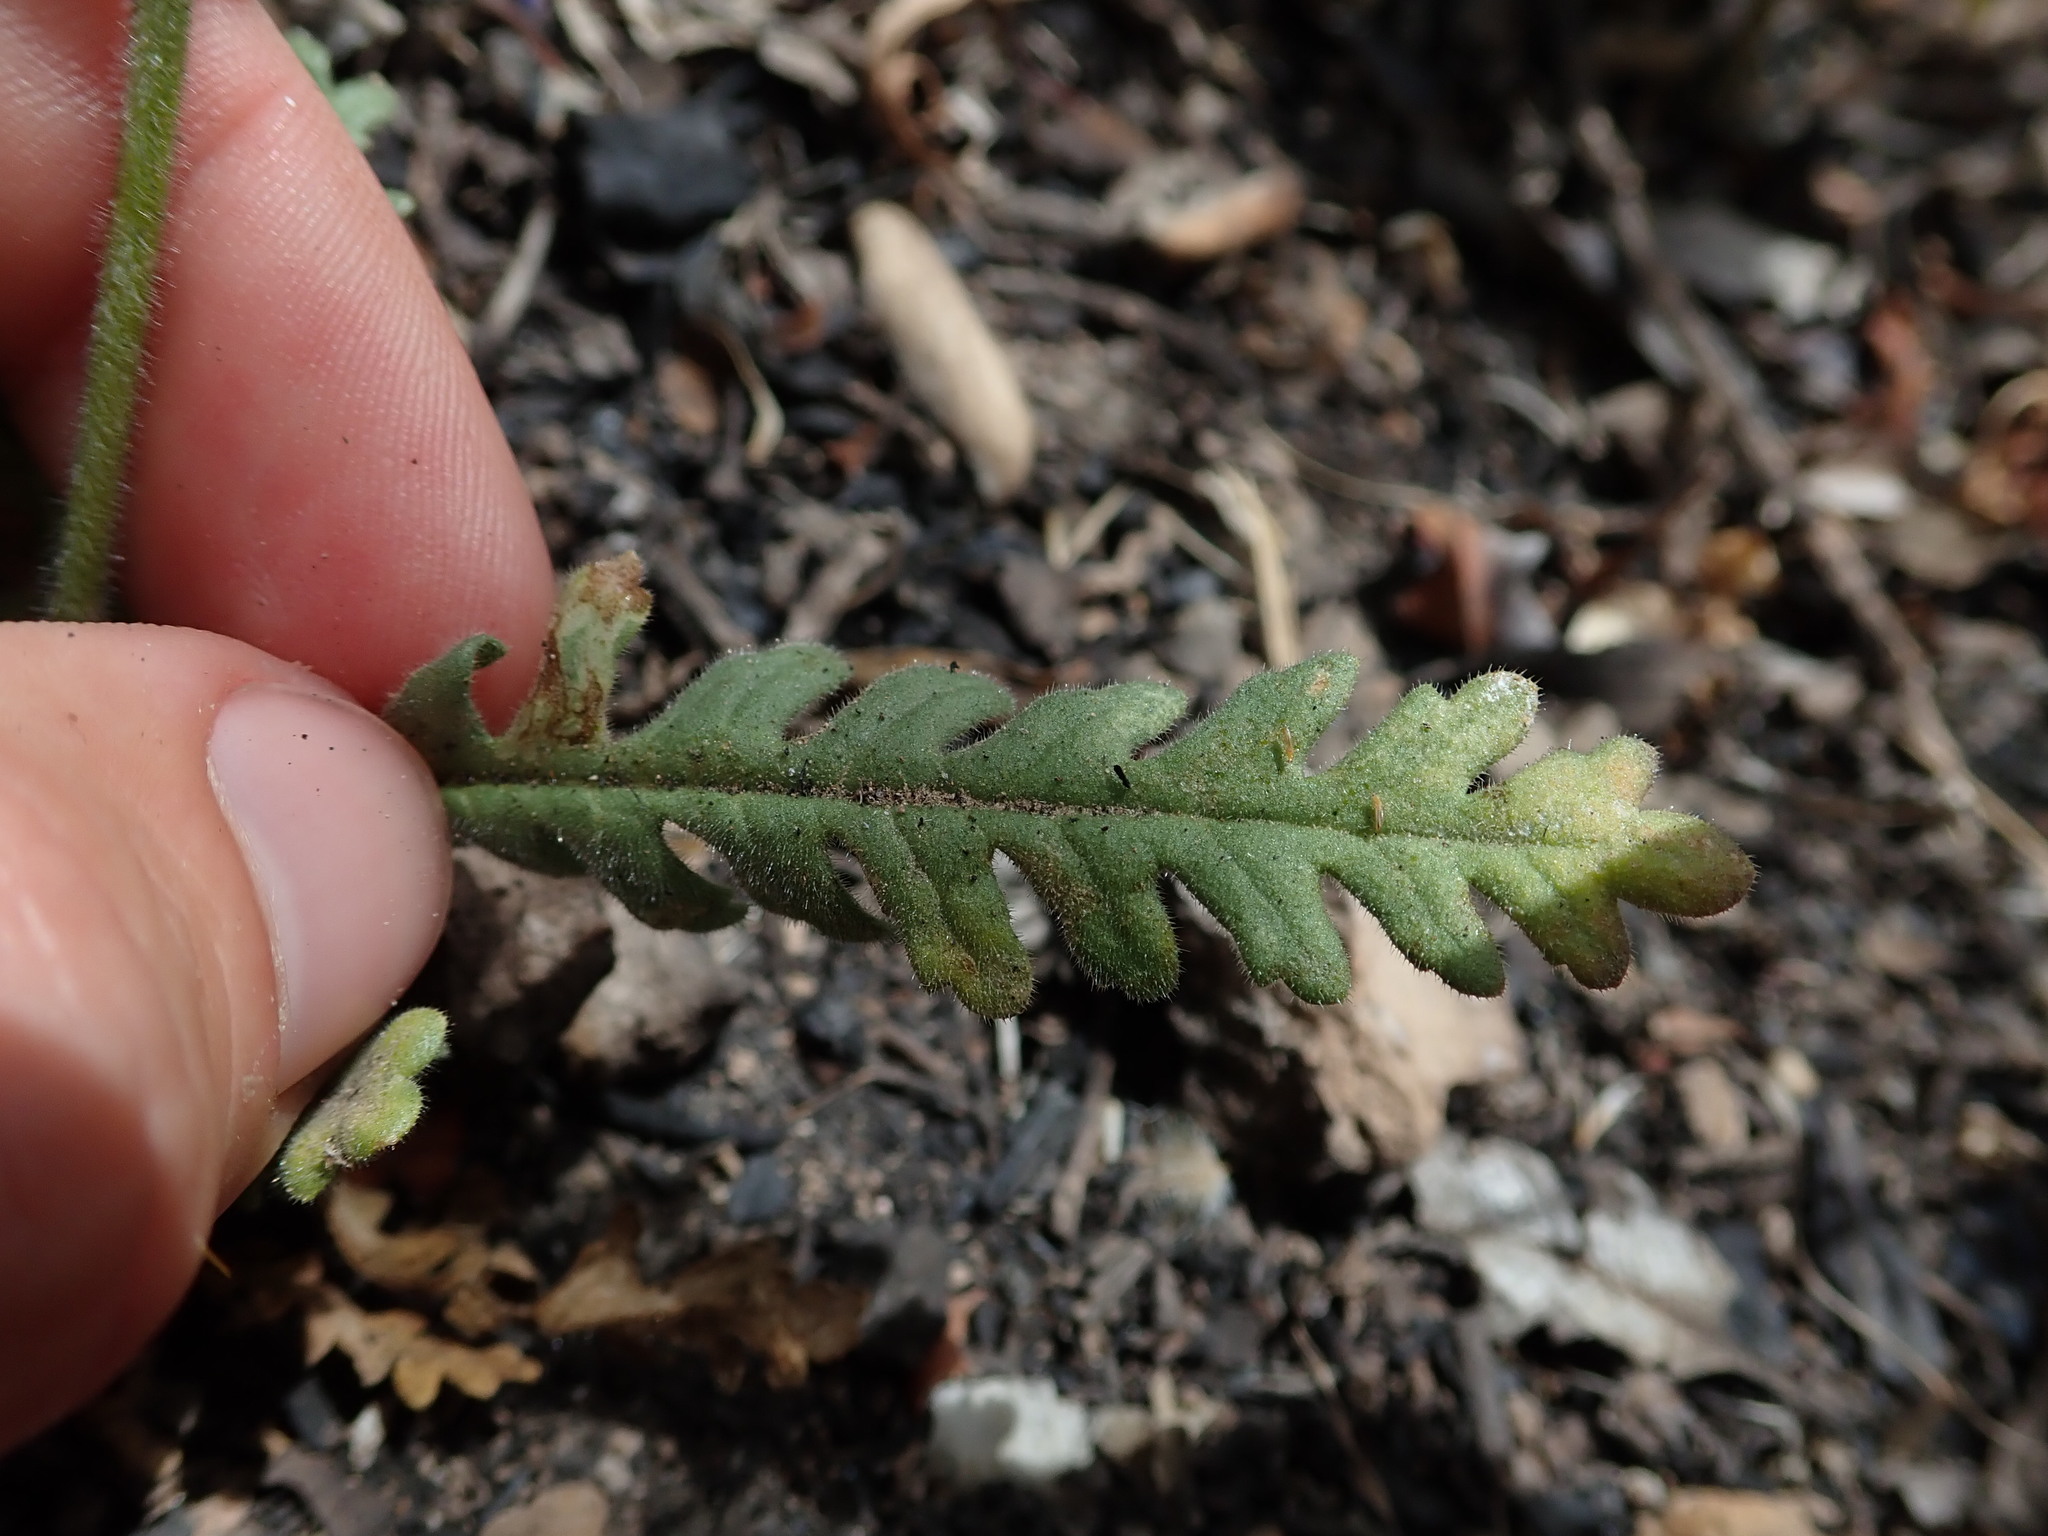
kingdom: Plantae
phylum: Tracheophyta
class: Magnoliopsida
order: Boraginales
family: Hydrophyllaceae
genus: Emmenanthe
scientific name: Emmenanthe penduliflora
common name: Whispering-bells
